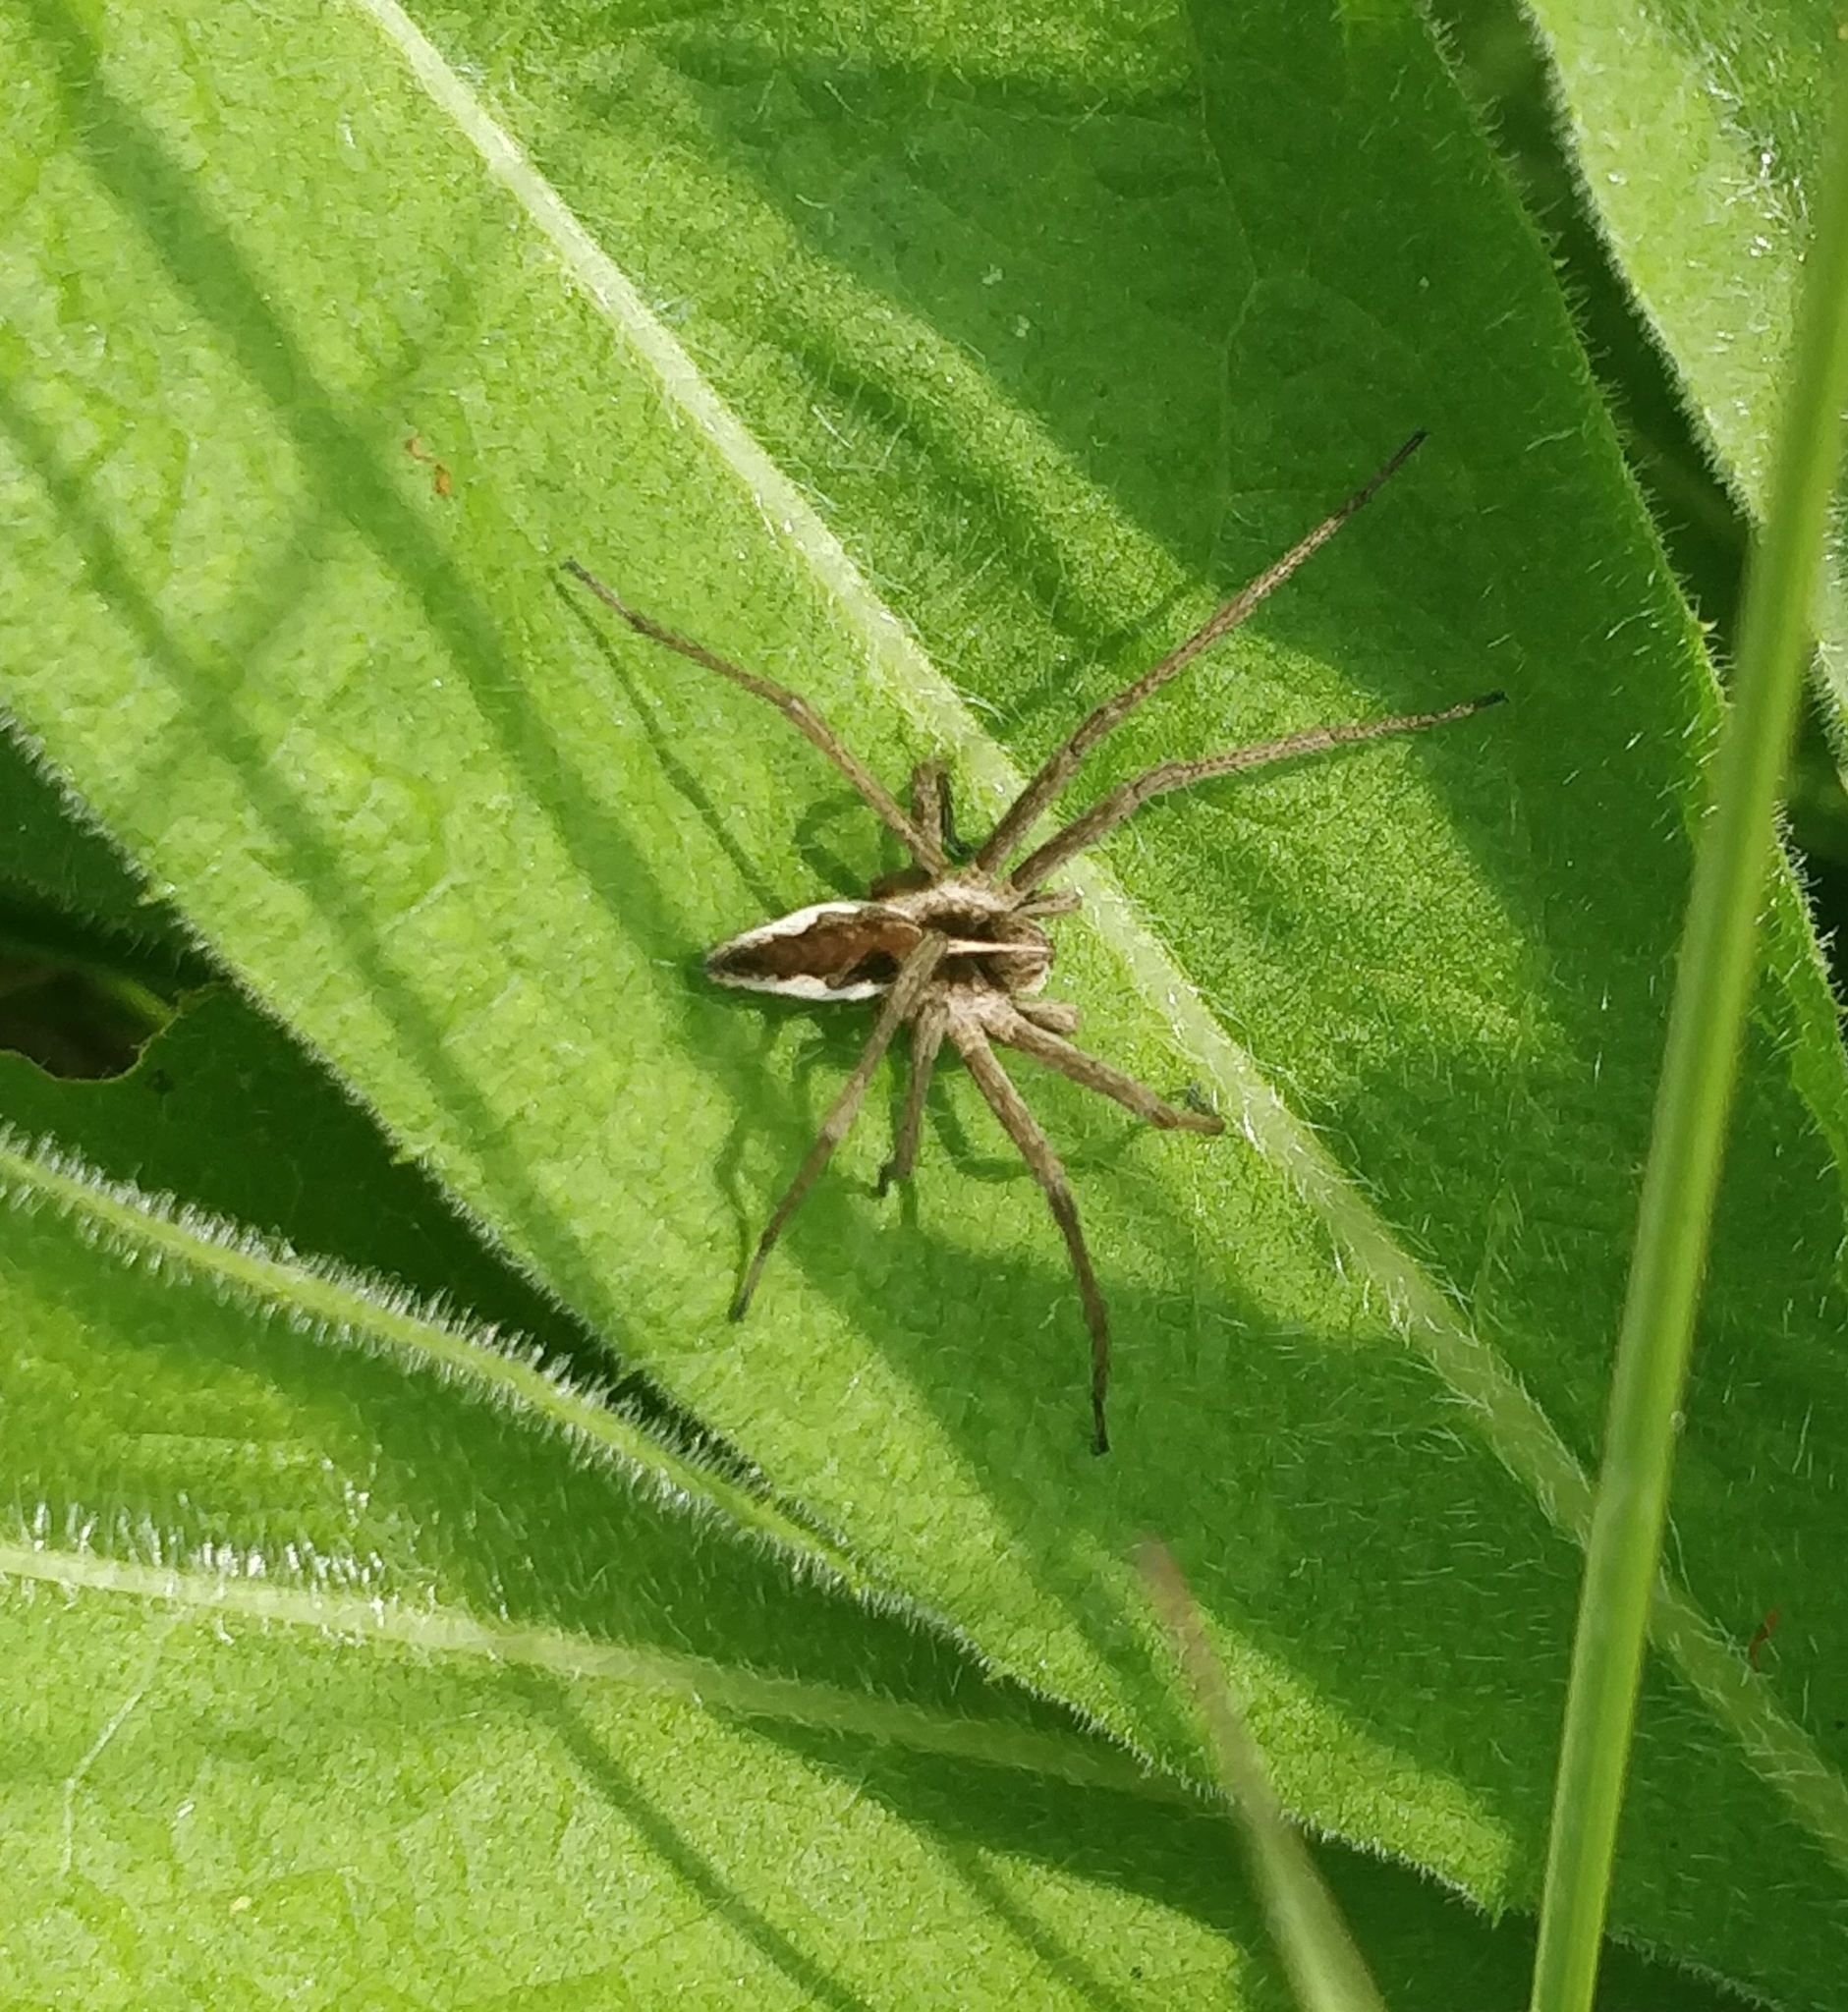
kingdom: Animalia
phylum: Arthropoda
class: Arachnida
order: Araneae
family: Pisauridae
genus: Pisaura
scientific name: Pisaura mirabilis
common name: Tent spider
